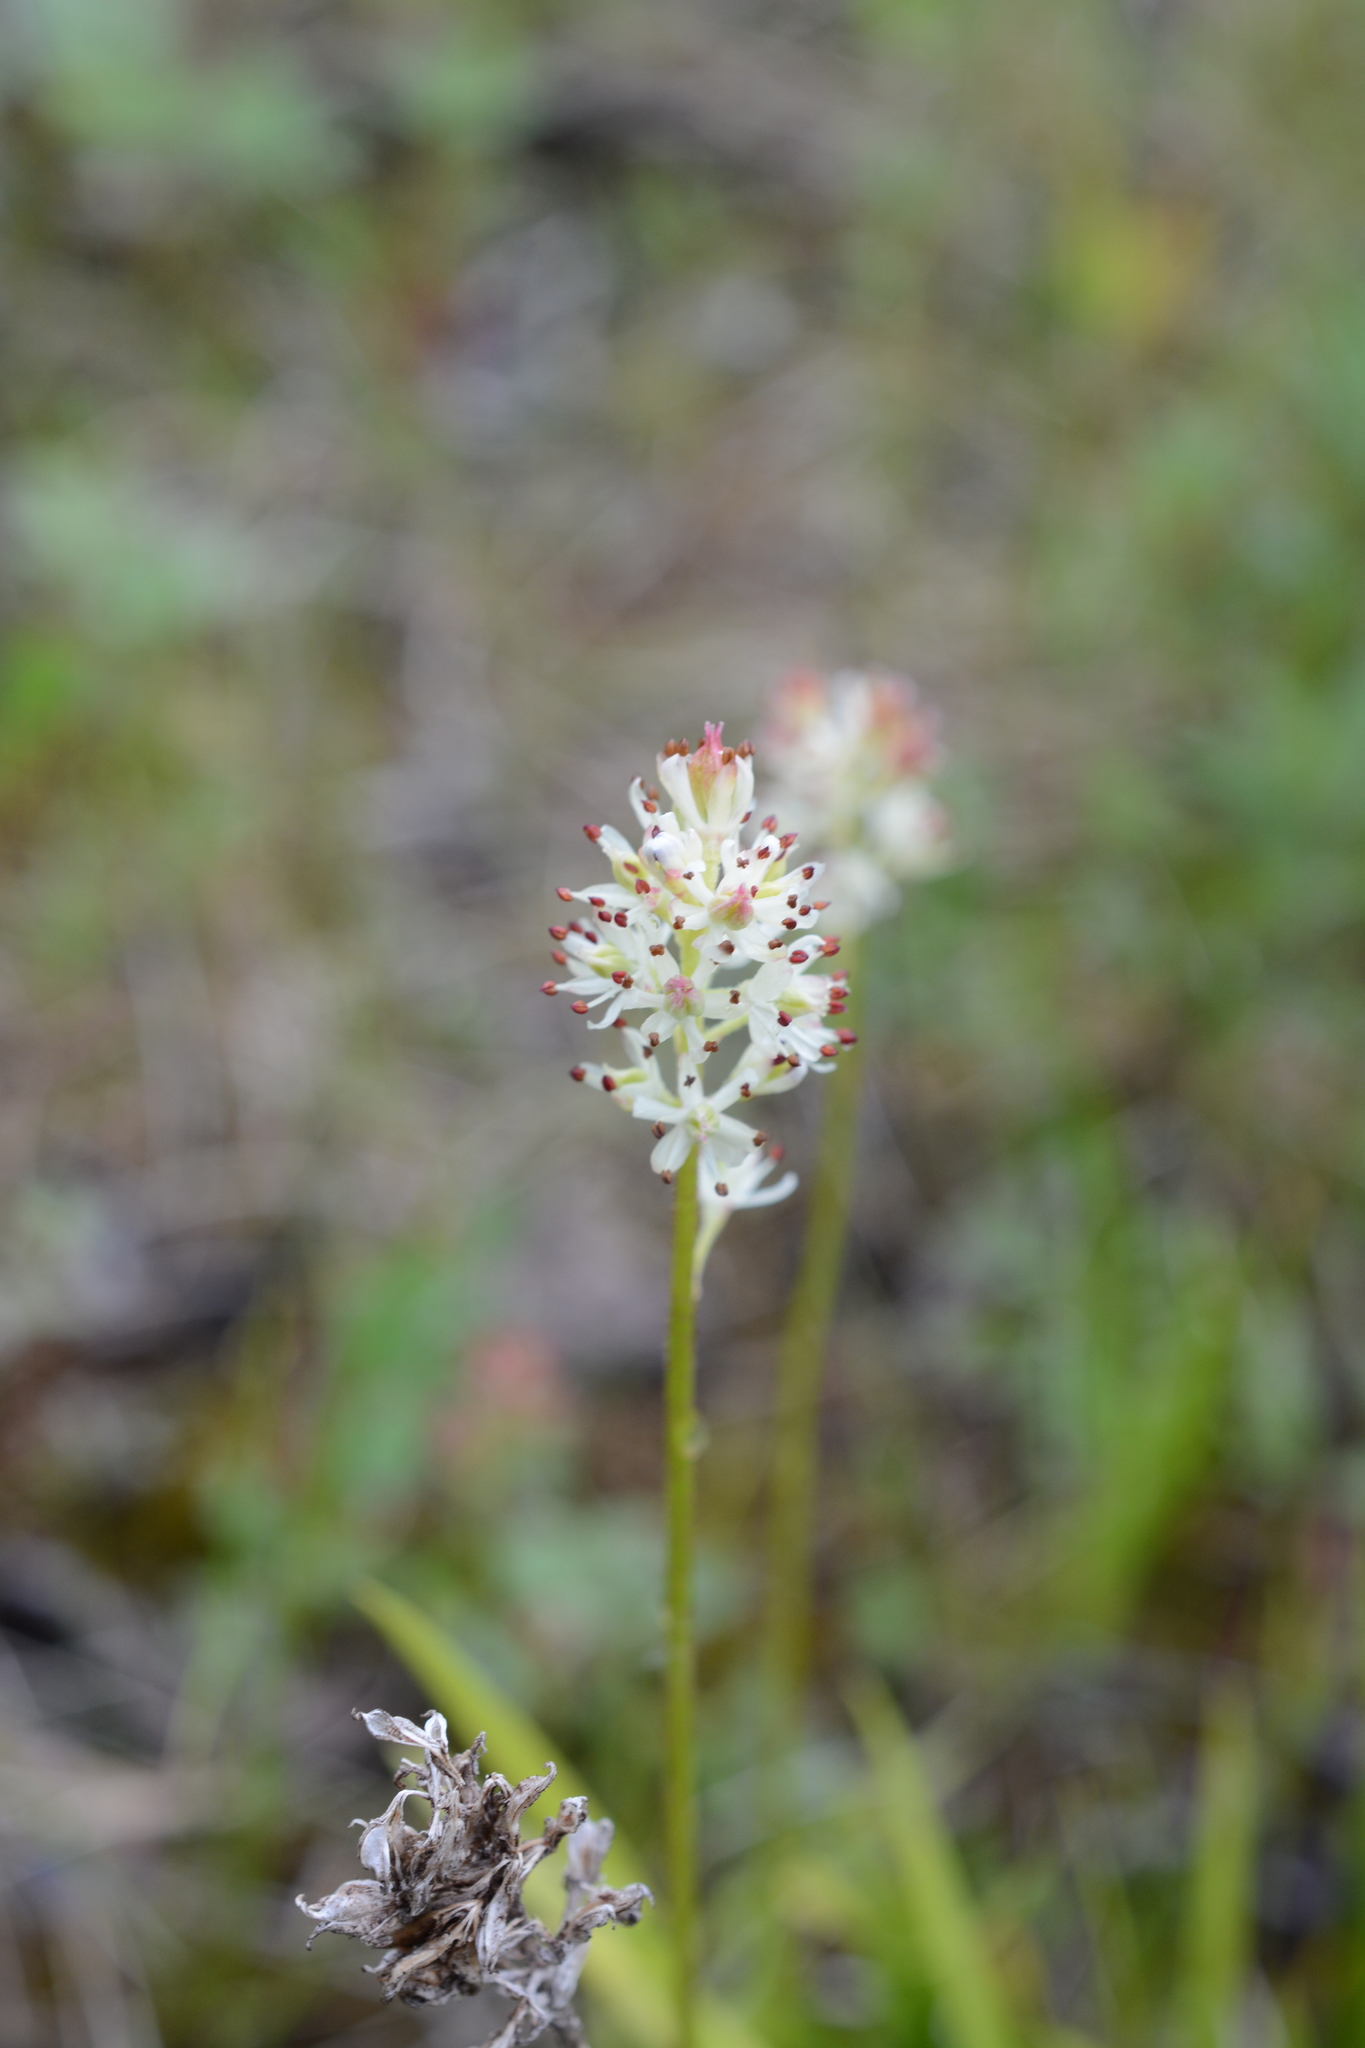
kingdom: Plantae
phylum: Tracheophyta
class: Liliopsida
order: Alismatales
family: Tofieldiaceae
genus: Triantha
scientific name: Triantha glutinosa
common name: Glutinous tofieldia
